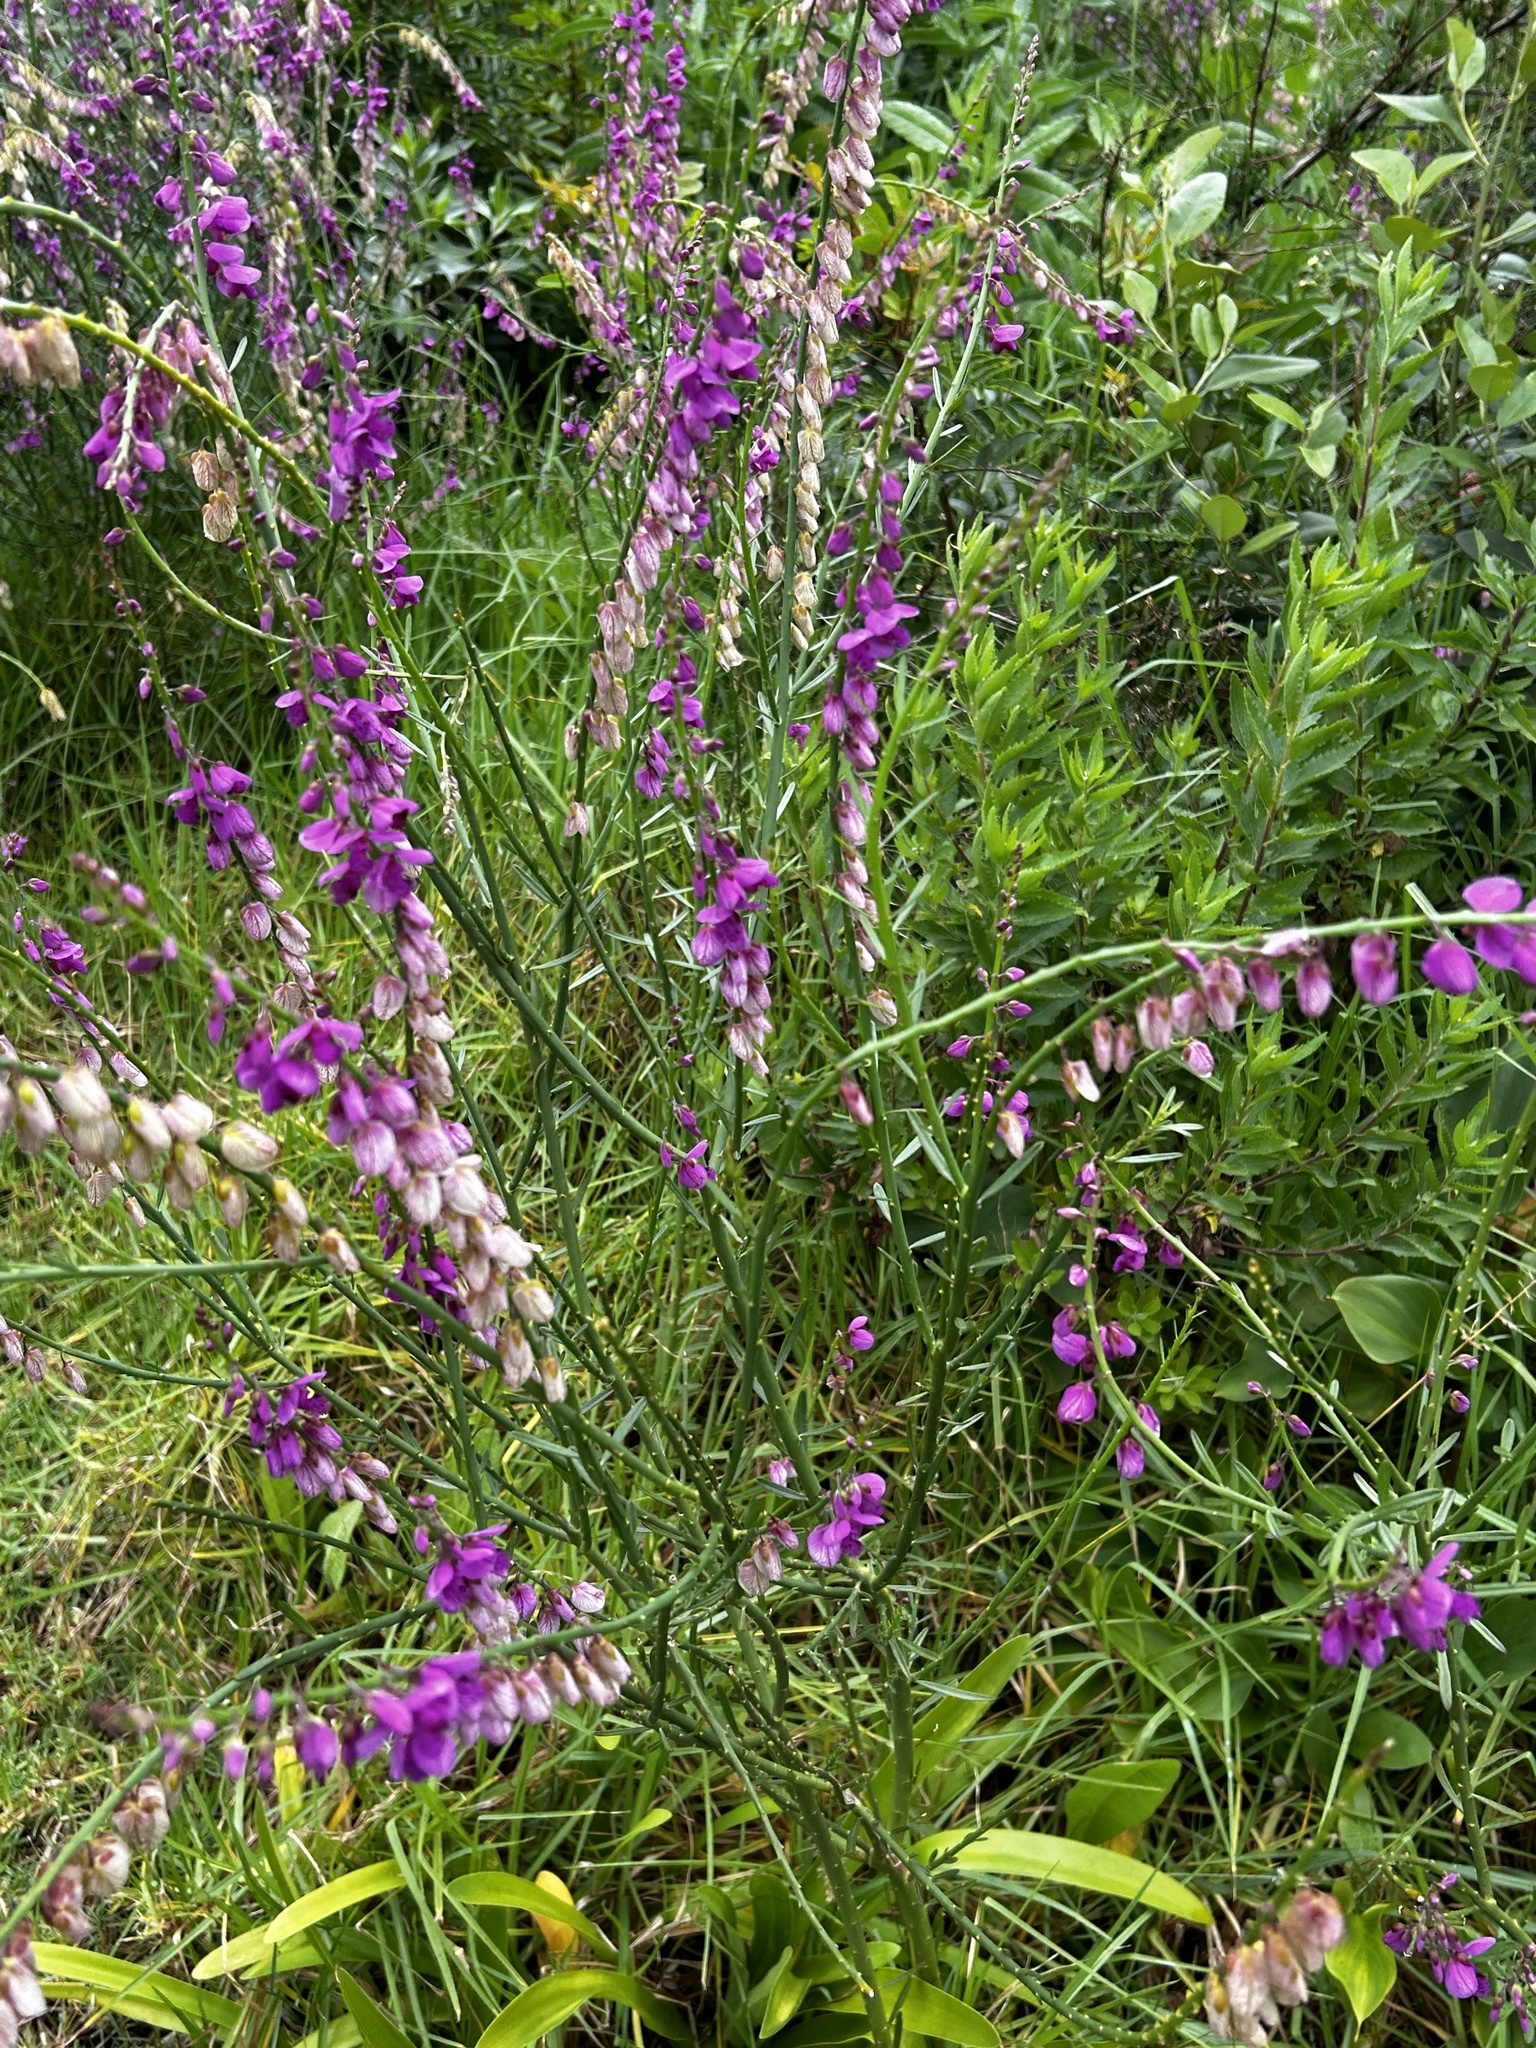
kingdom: Plantae
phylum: Tracheophyta
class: Magnoliopsida
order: Fabales
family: Polygalaceae
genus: Polygala
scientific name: Polygala virgata
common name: Milkwort
